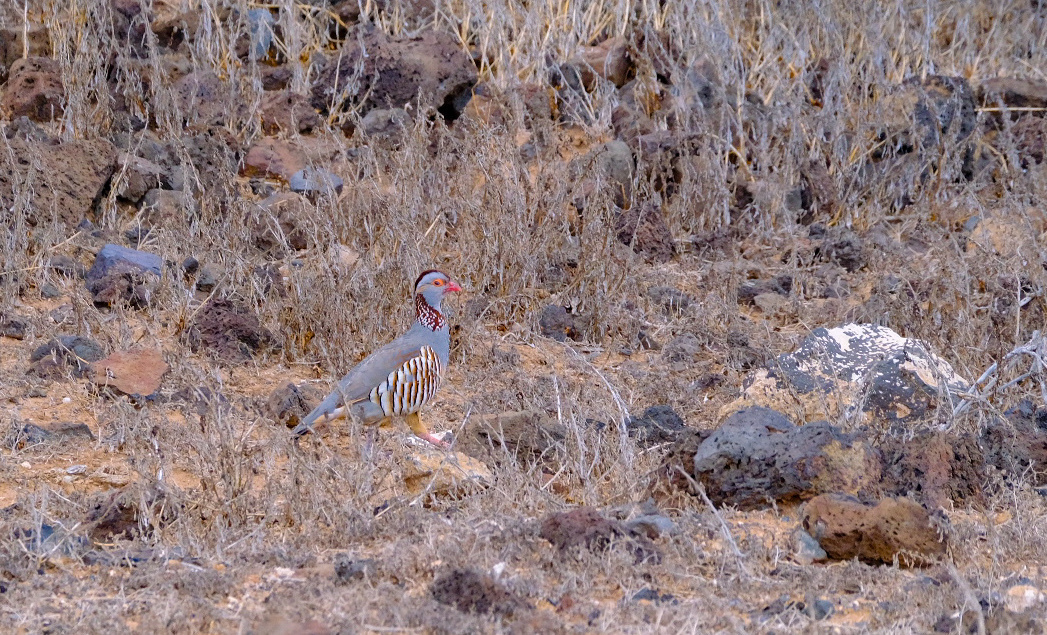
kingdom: Animalia
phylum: Chordata
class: Aves
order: Galliformes
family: Phasianidae
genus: Alectoris
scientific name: Alectoris barbara
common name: Barbary partridge
